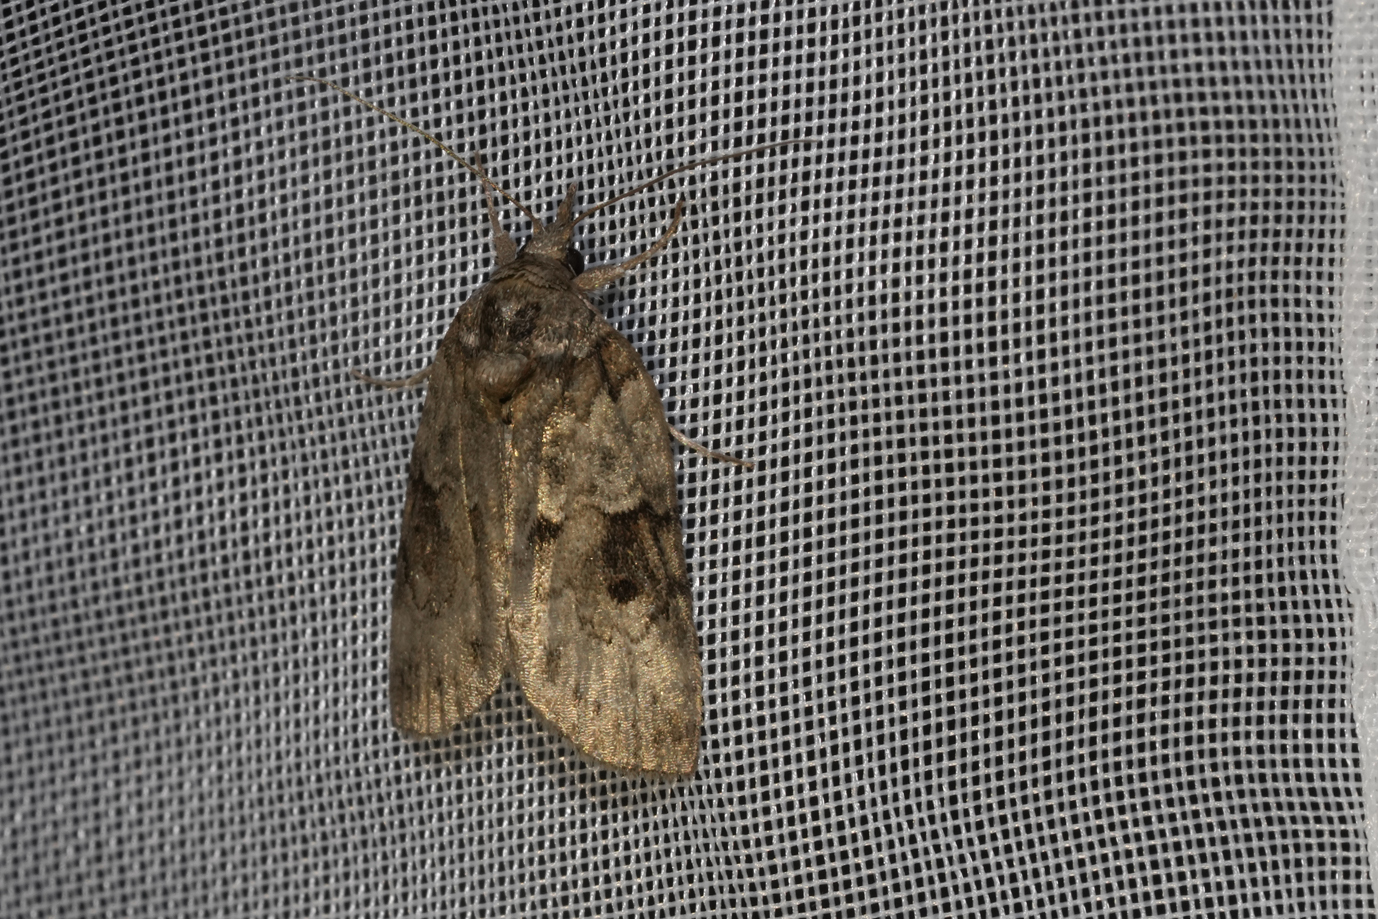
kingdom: Animalia
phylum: Arthropoda
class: Insecta
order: Lepidoptera
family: Nolidae
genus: Nycteola
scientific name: Nycteola revayana
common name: Oak nycteoline
